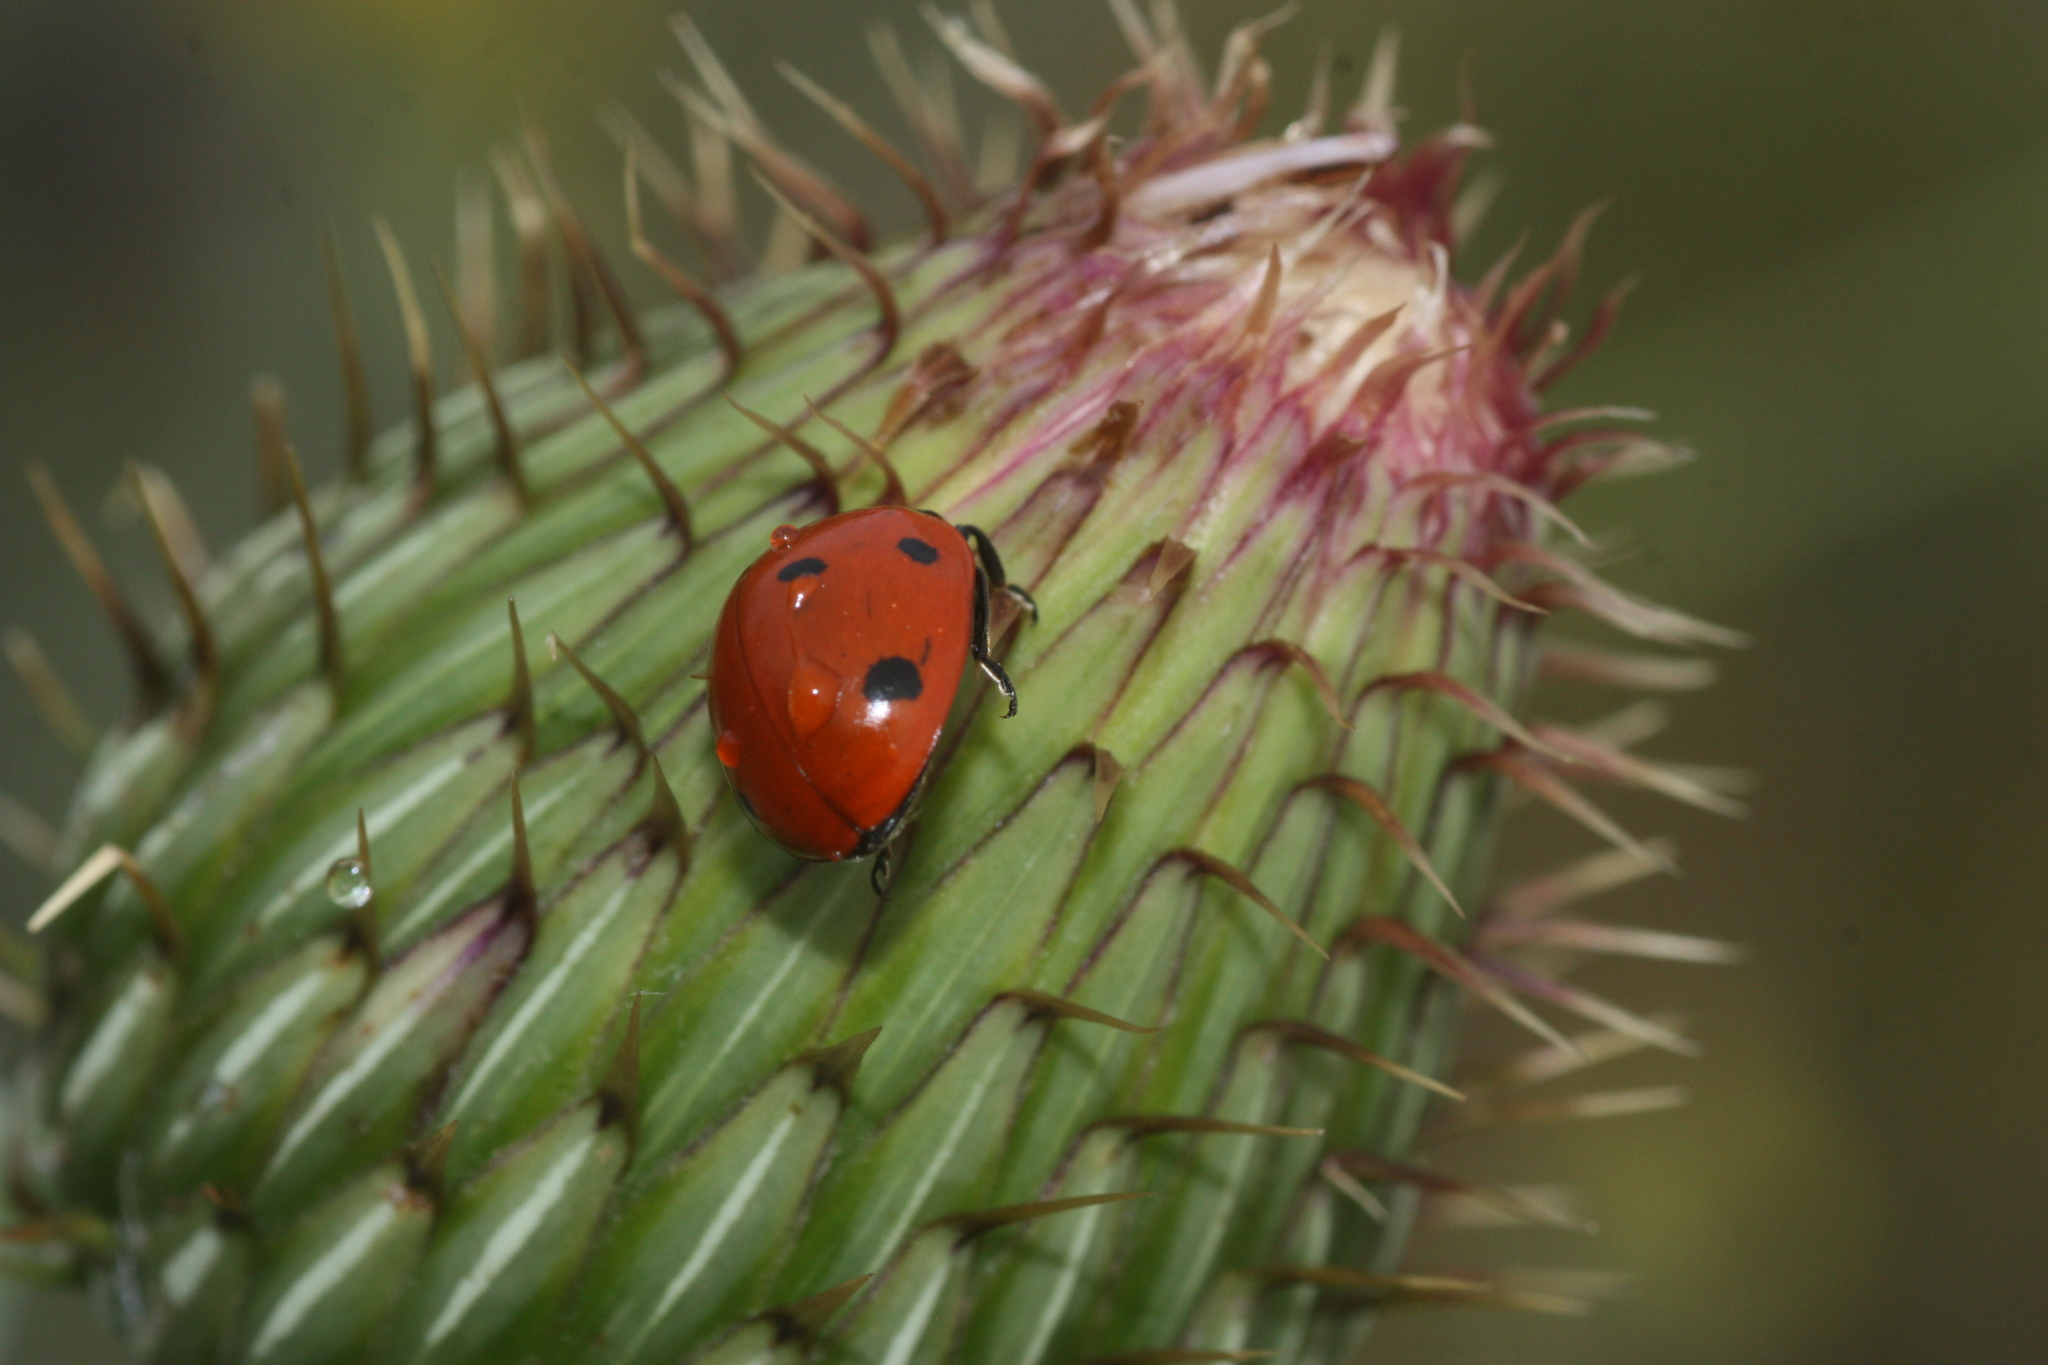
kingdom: Animalia
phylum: Arthropoda
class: Insecta
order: Coleoptera
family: Coccinellidae
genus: Coccinella
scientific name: Coccinella septempunctata
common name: Sevenspotted lady beetle
